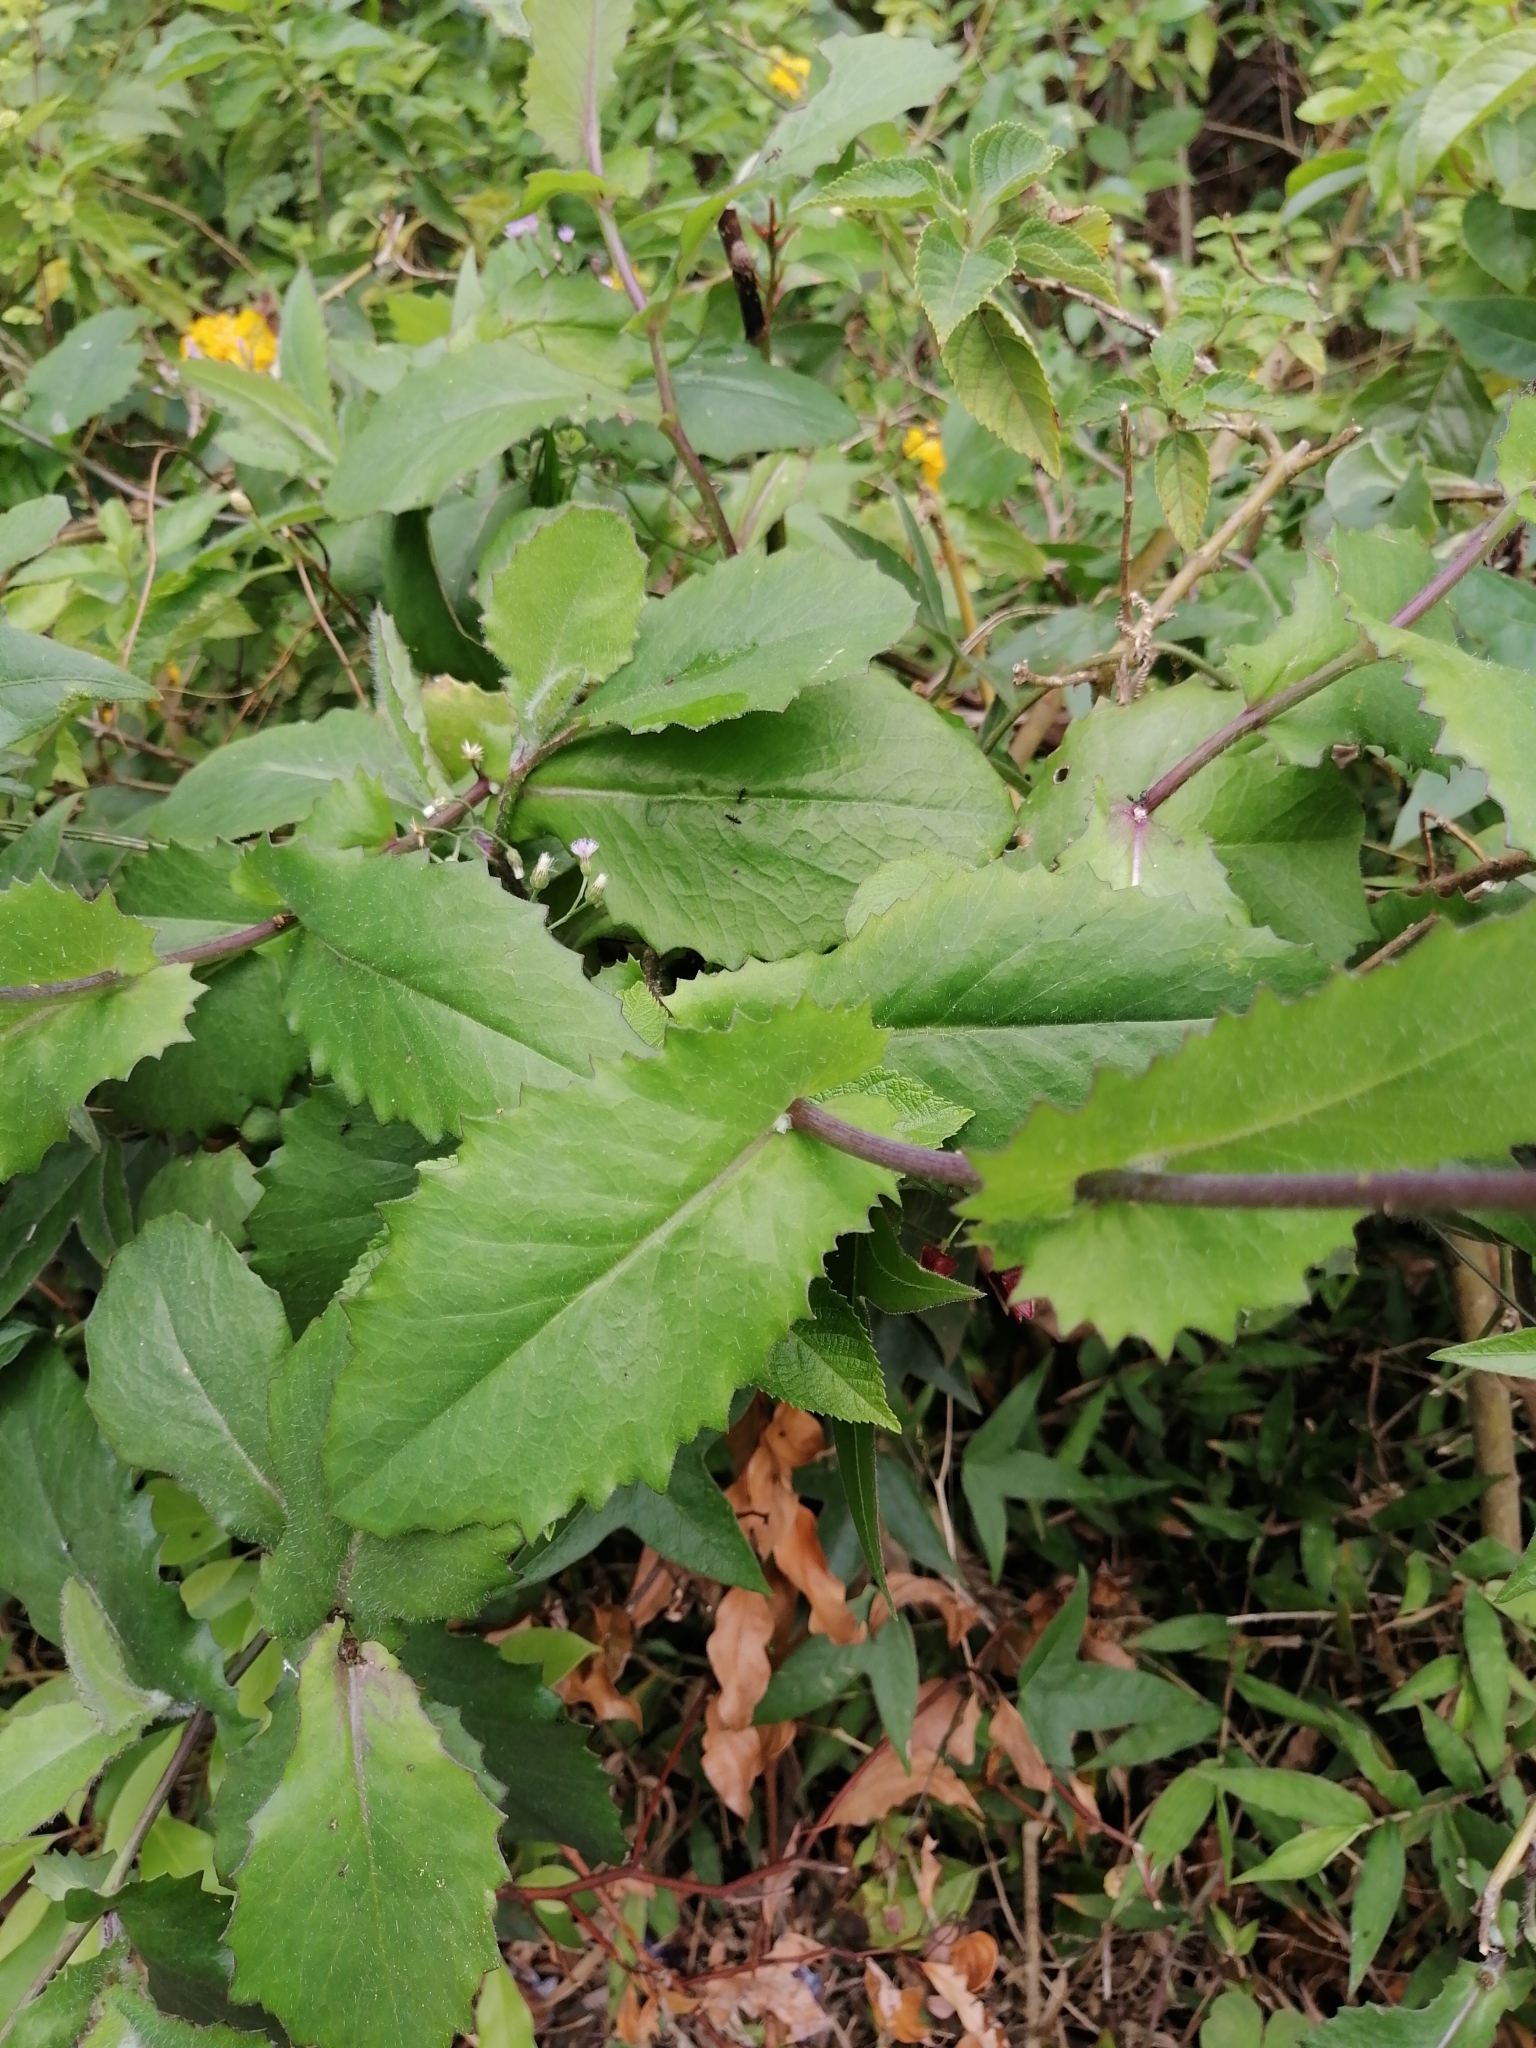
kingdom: Plantae
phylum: Tracheophyta
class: Magnoliopsida
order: Asterales
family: Asteraceae
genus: Emilia
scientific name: Emilia praetermissa
